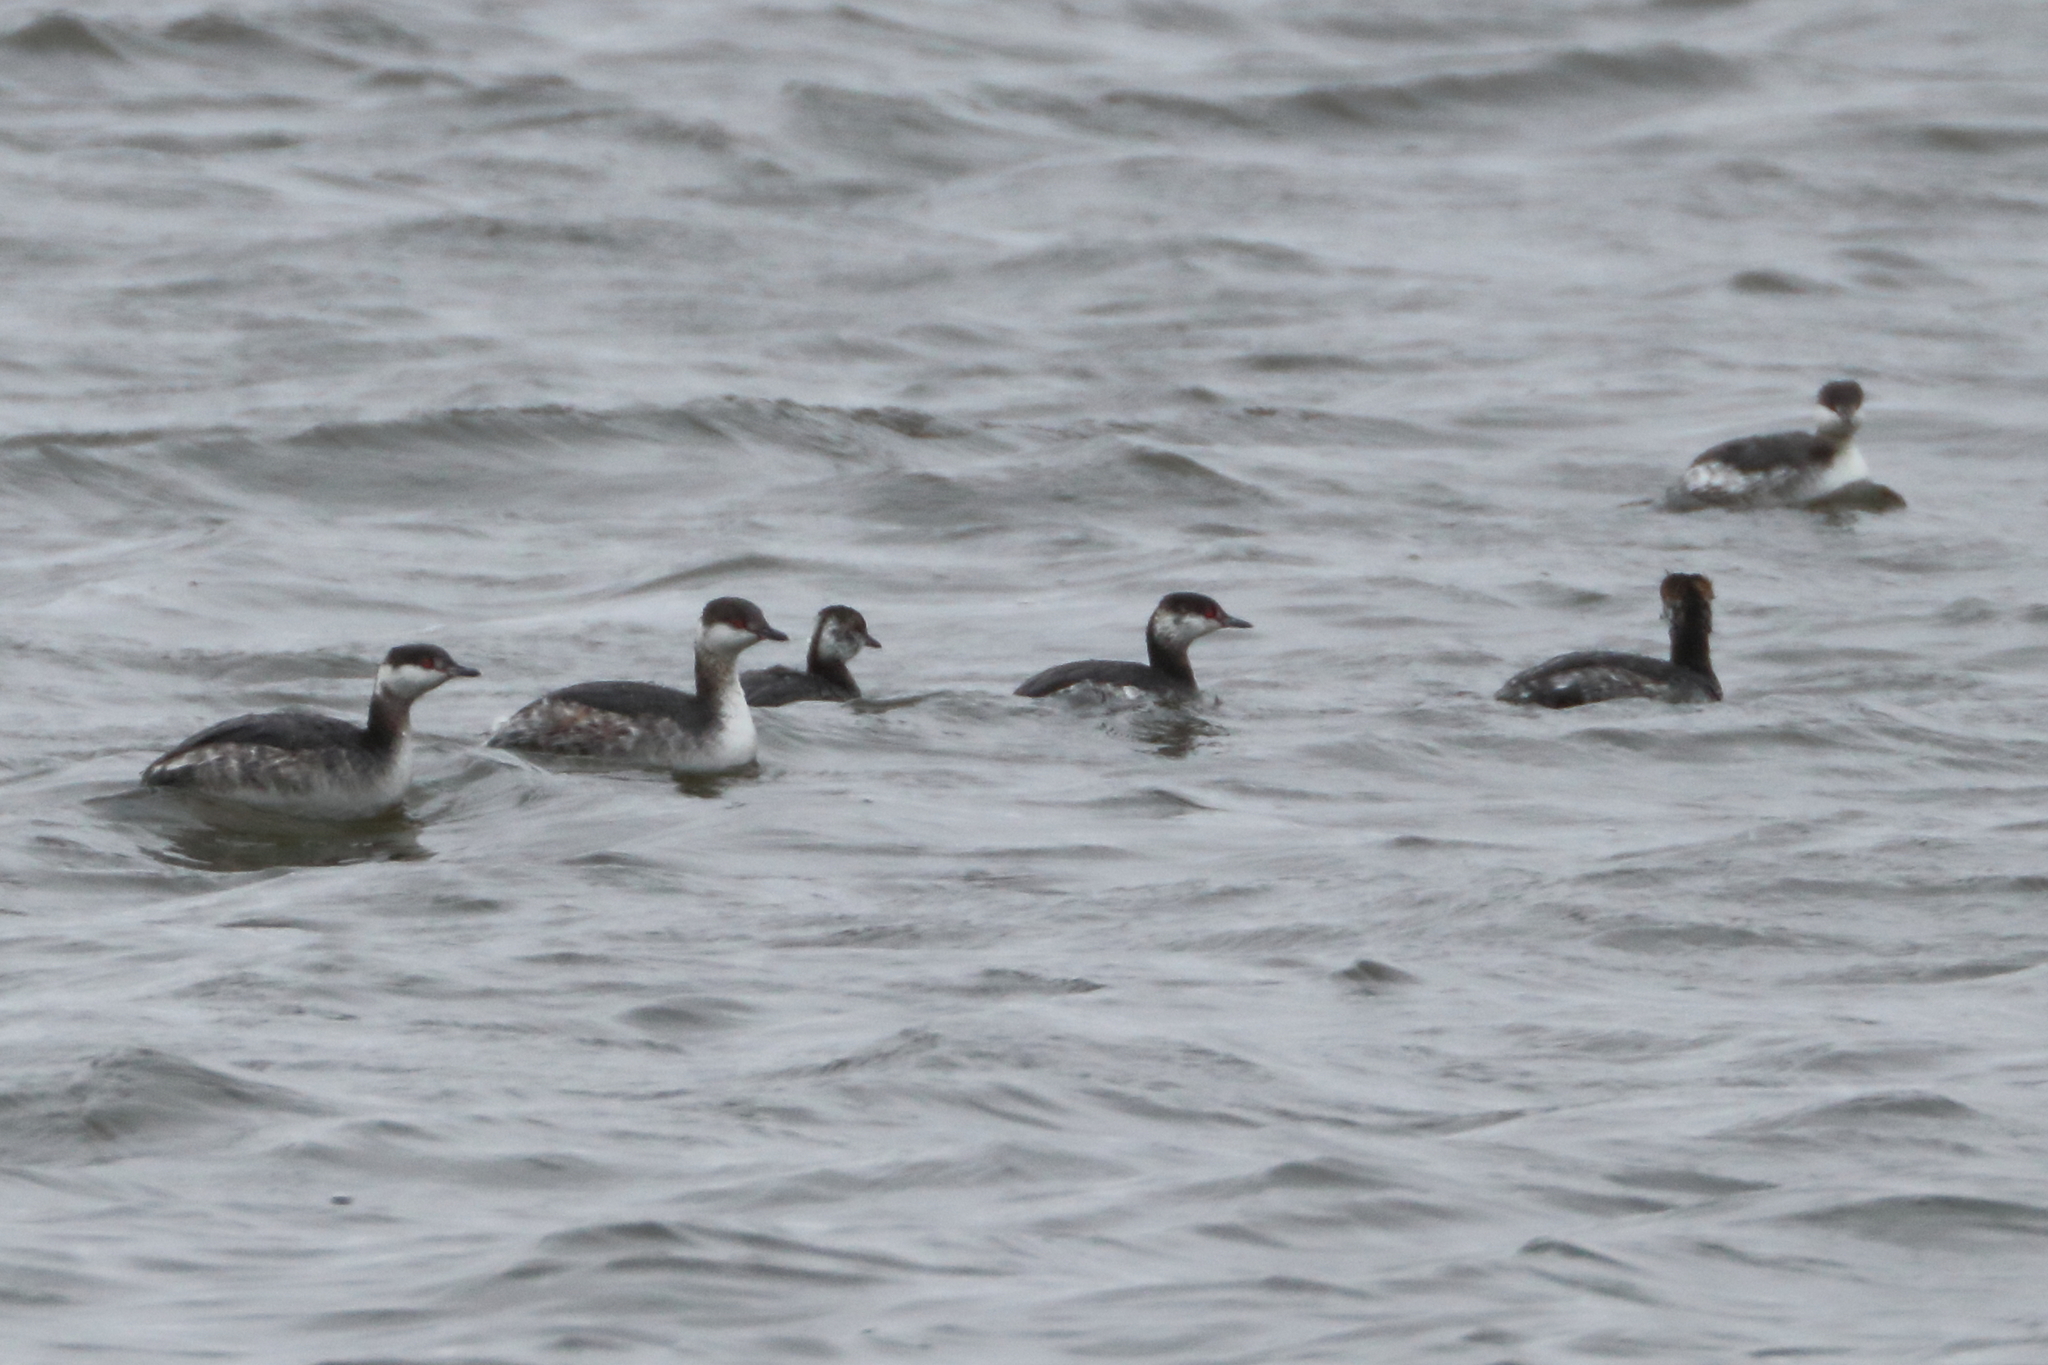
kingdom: Animalia
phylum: Chordata
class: Aves
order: Podicipediformes
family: Podicipedidae
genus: Podiceps
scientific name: Podiceps auritus
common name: Horned grebe
